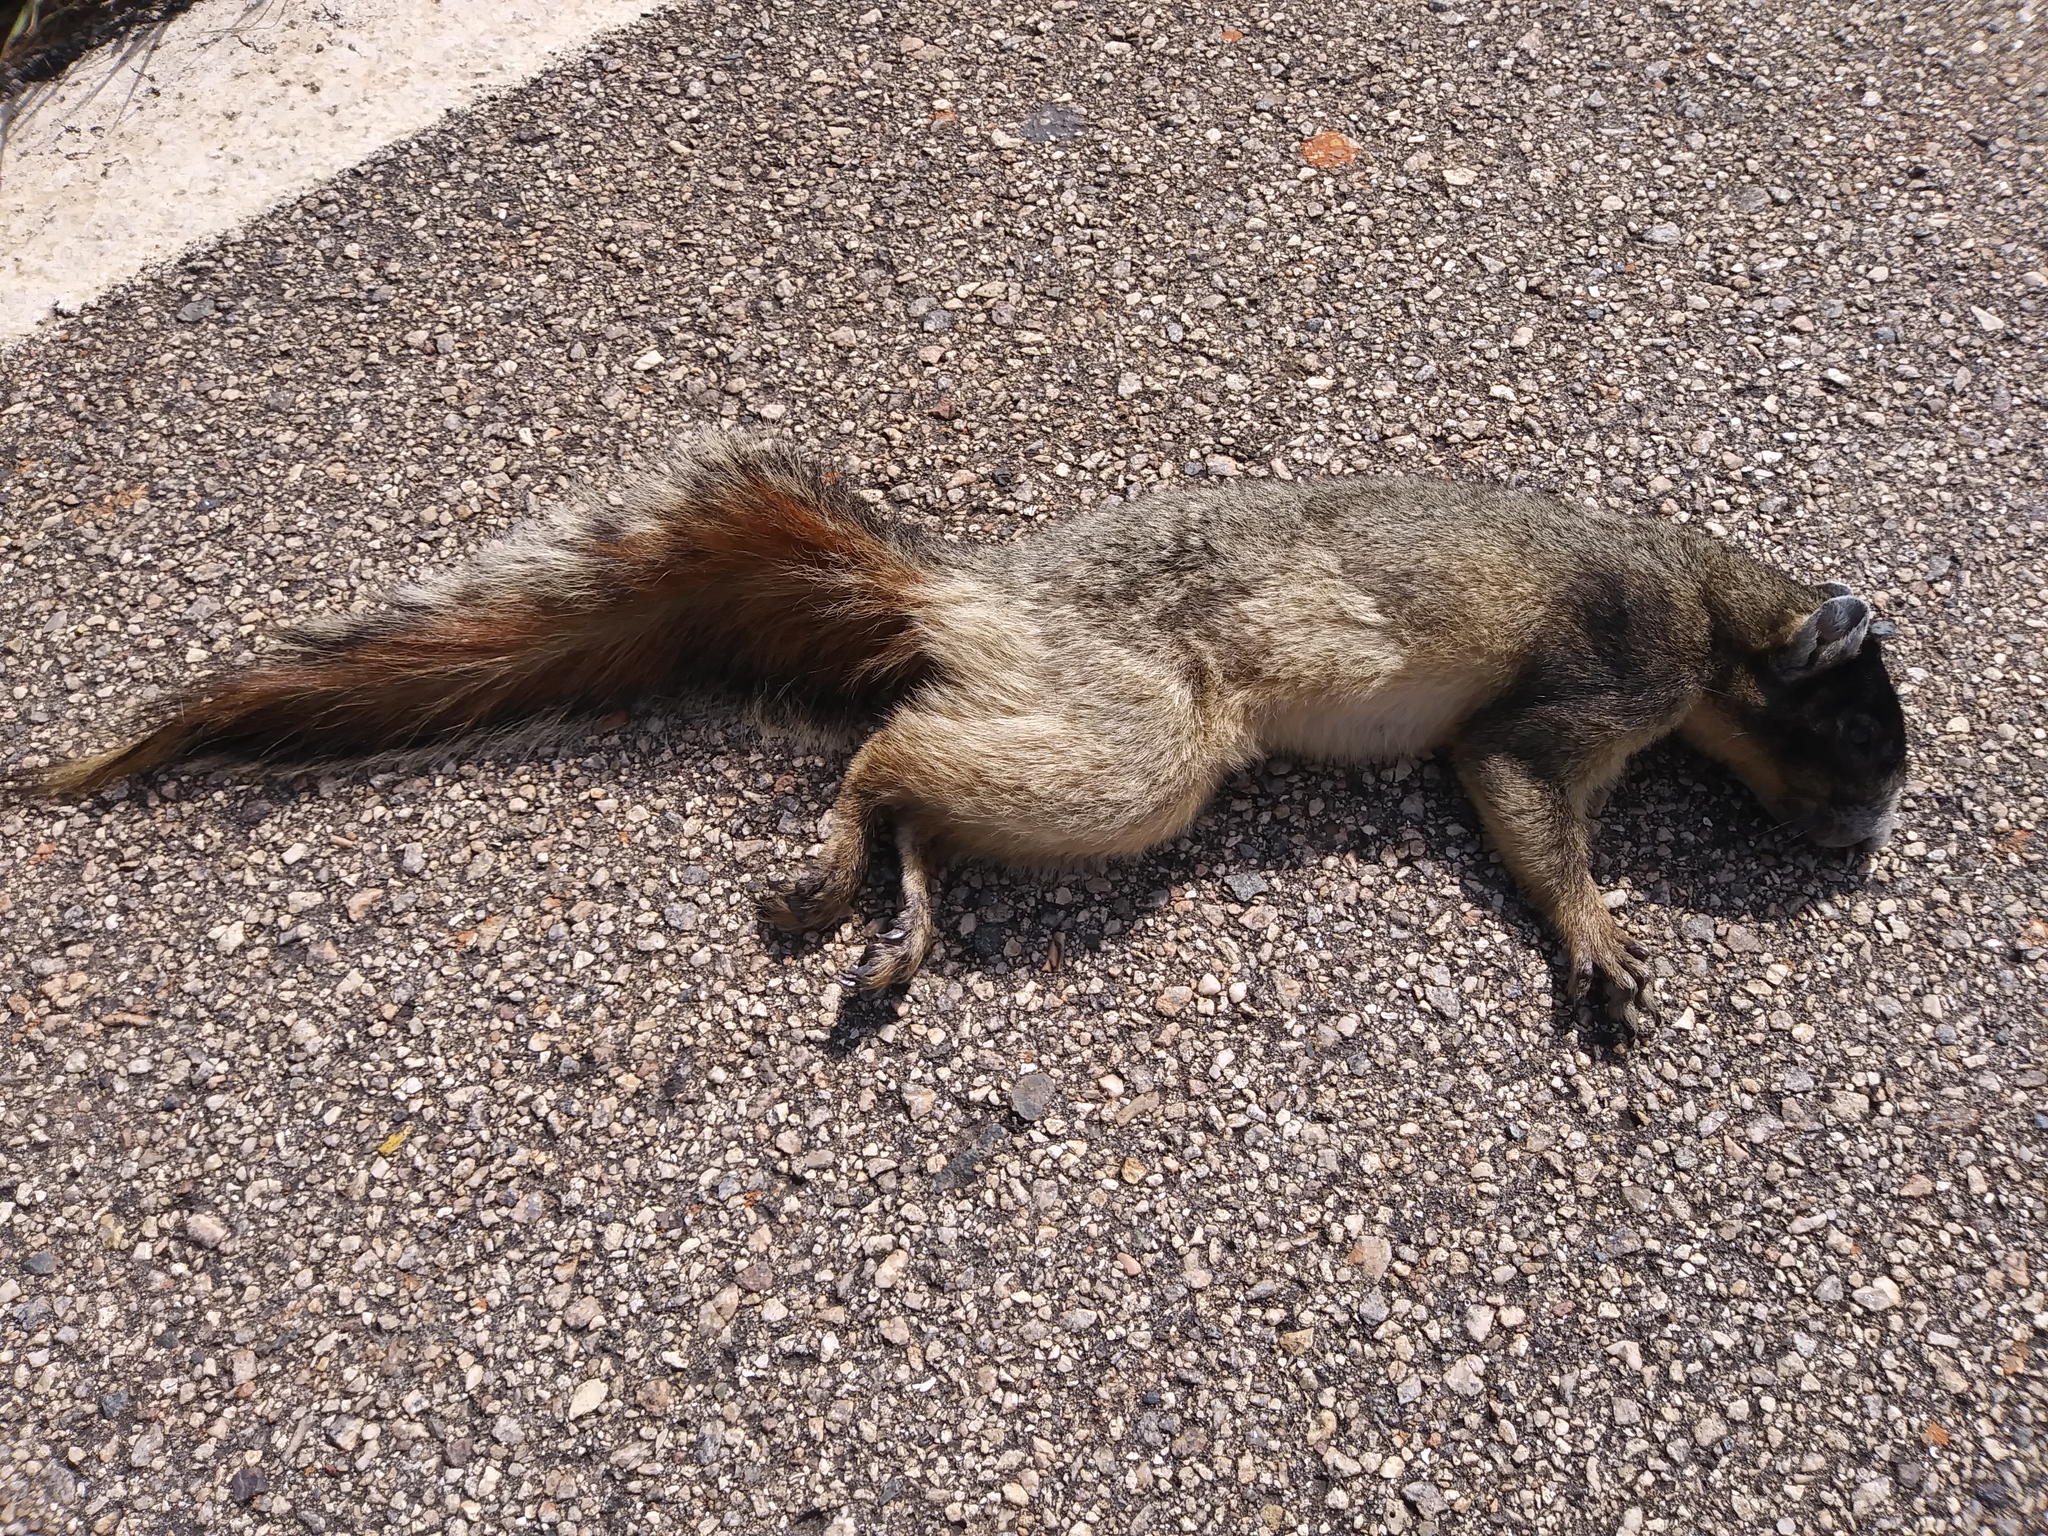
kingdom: Animalia
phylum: Chordata
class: Mammalia
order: Rodentia
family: Sciuridae
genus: Sciurus
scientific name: Sciurus niger
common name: Fox squirrel
